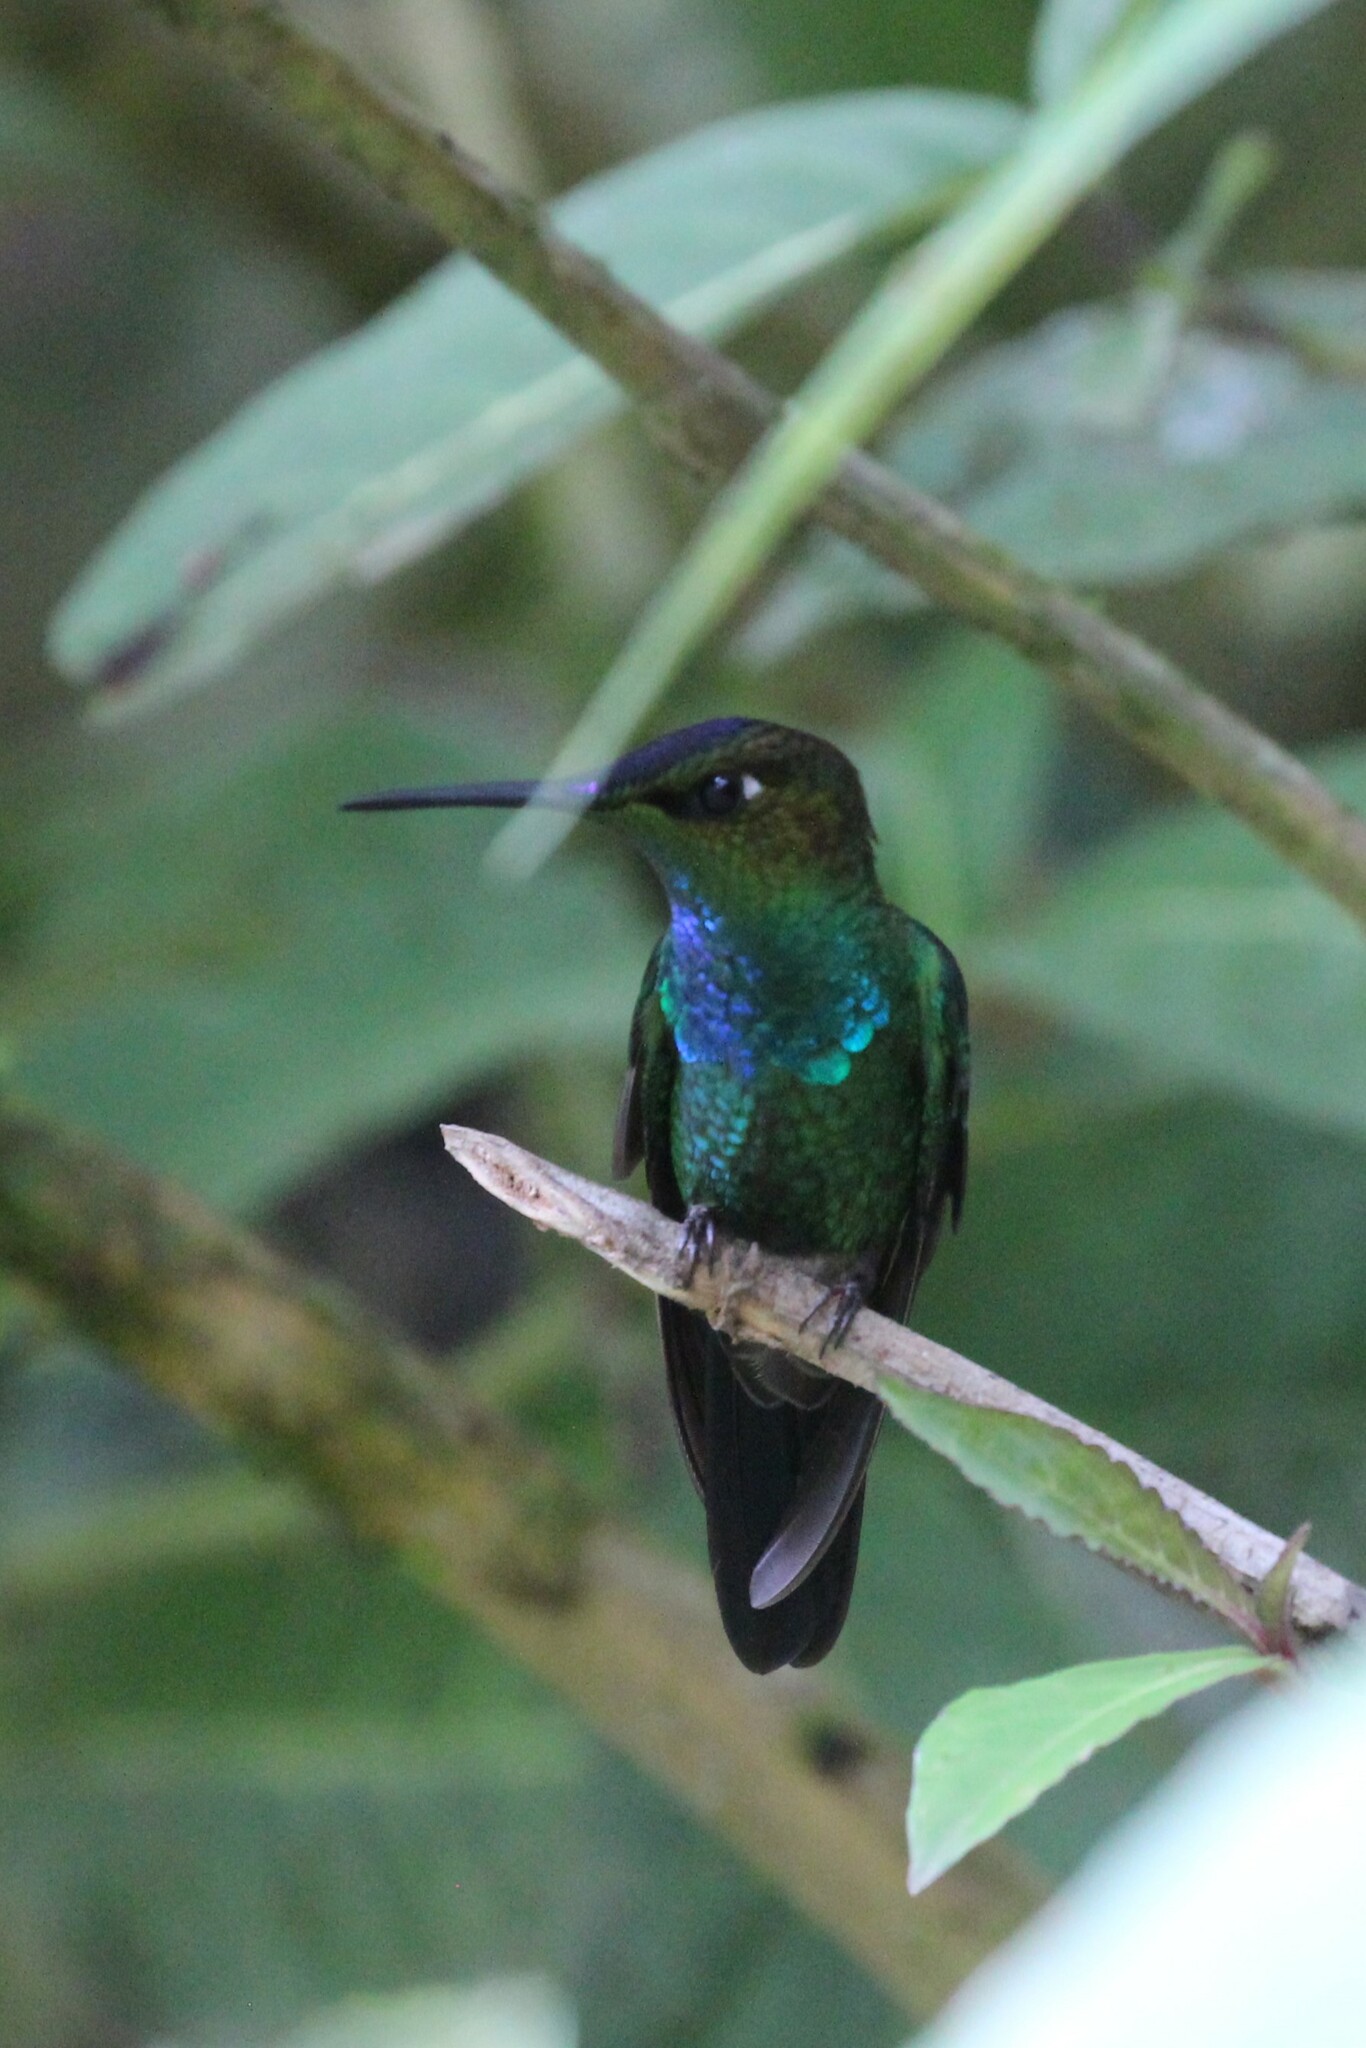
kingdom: Animalia
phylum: Chordata
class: Aves
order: Apodiformes
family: Trochilidae
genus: Heliodoxa
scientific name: Heliodoxa leadbeateri
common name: Violet-fronted brilliant
